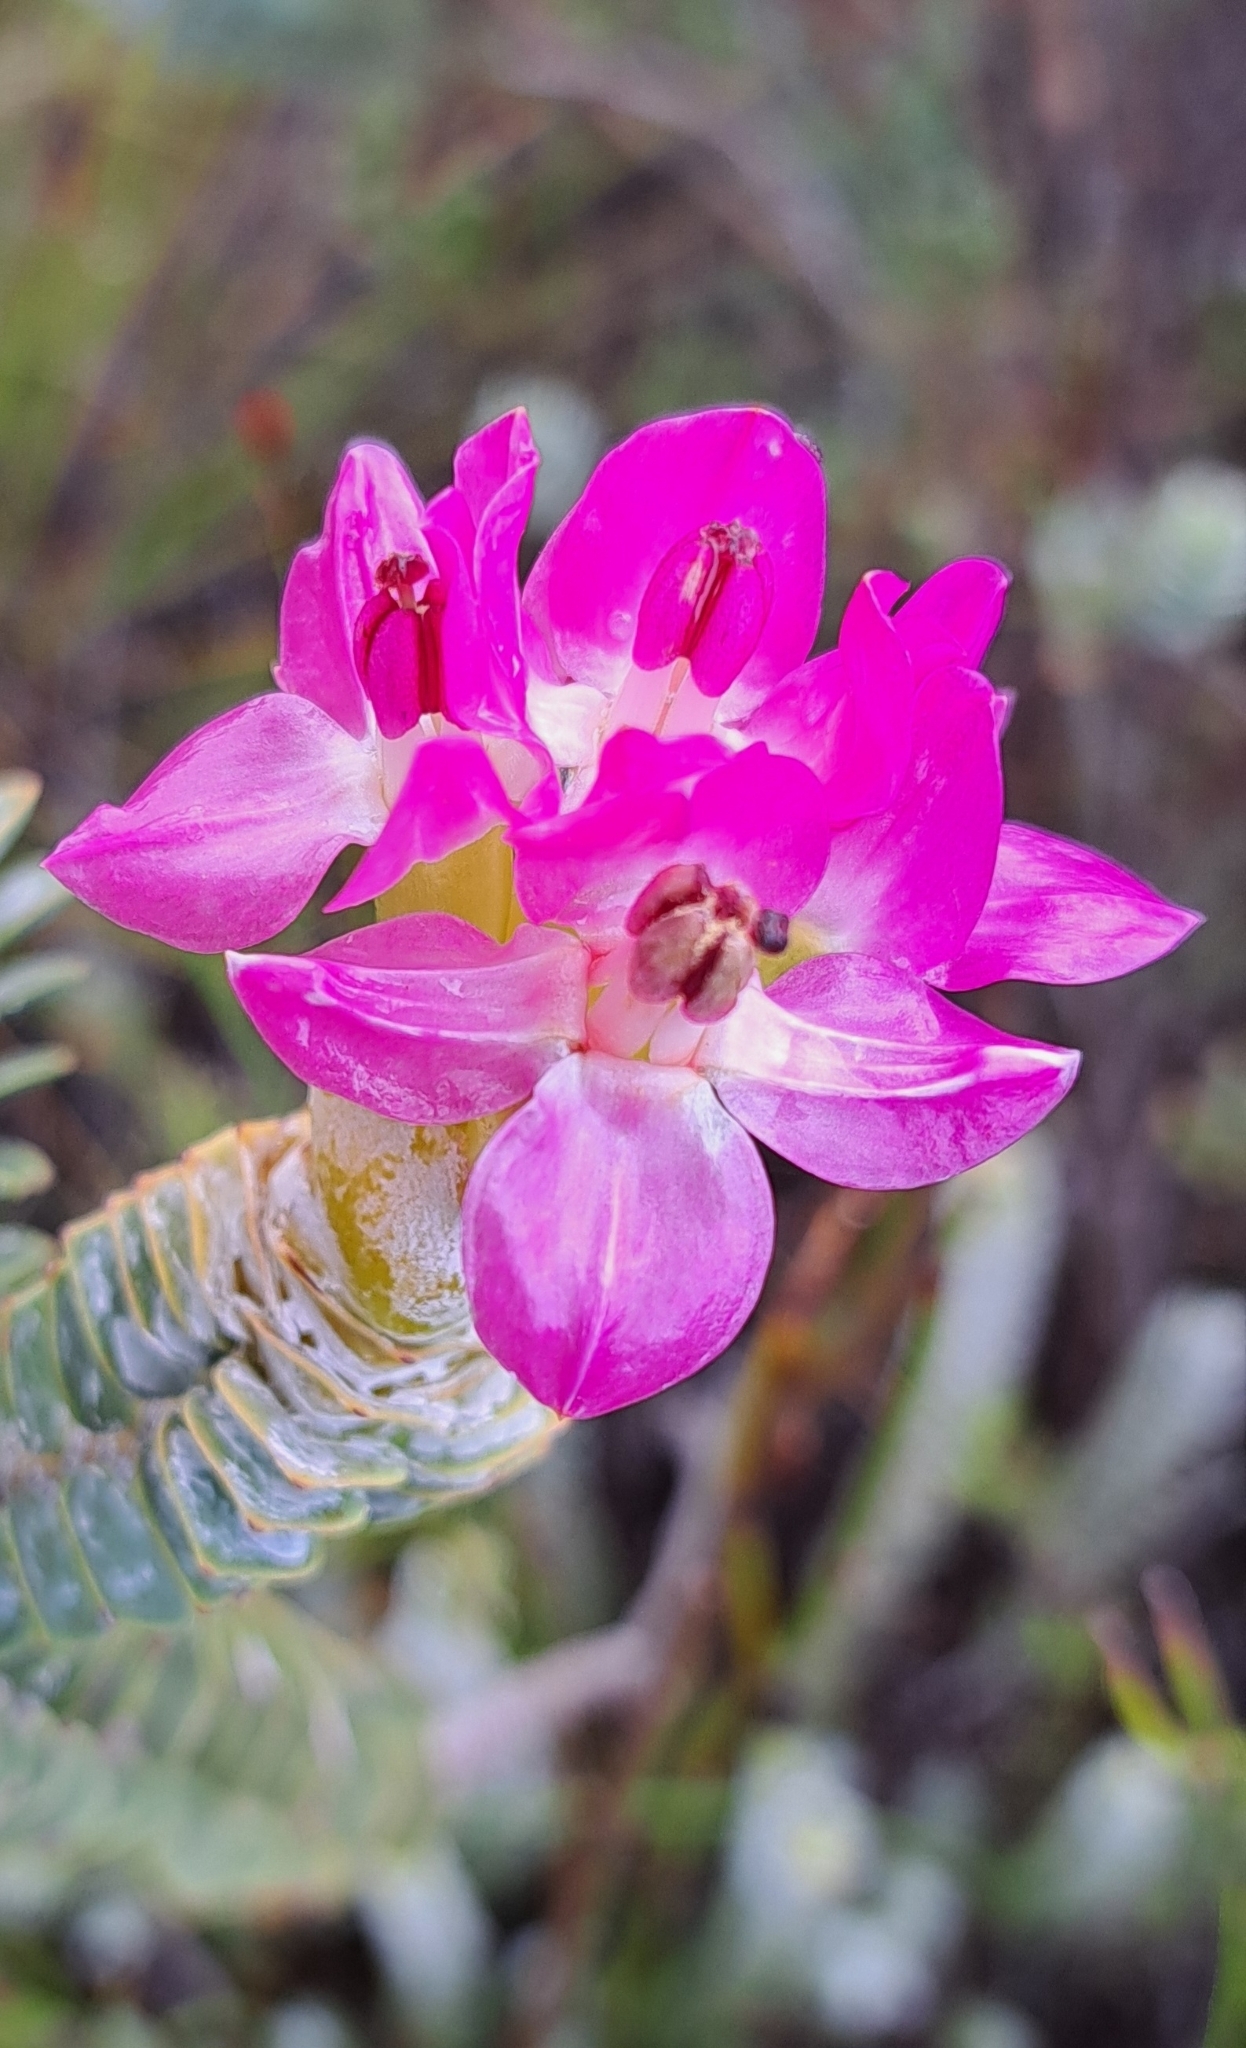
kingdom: Plantae
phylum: Tracheophyta
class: Magnoliopsida
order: Myrtales
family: Penaeaceae
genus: Saltera
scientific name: Saltera sarcocolla
